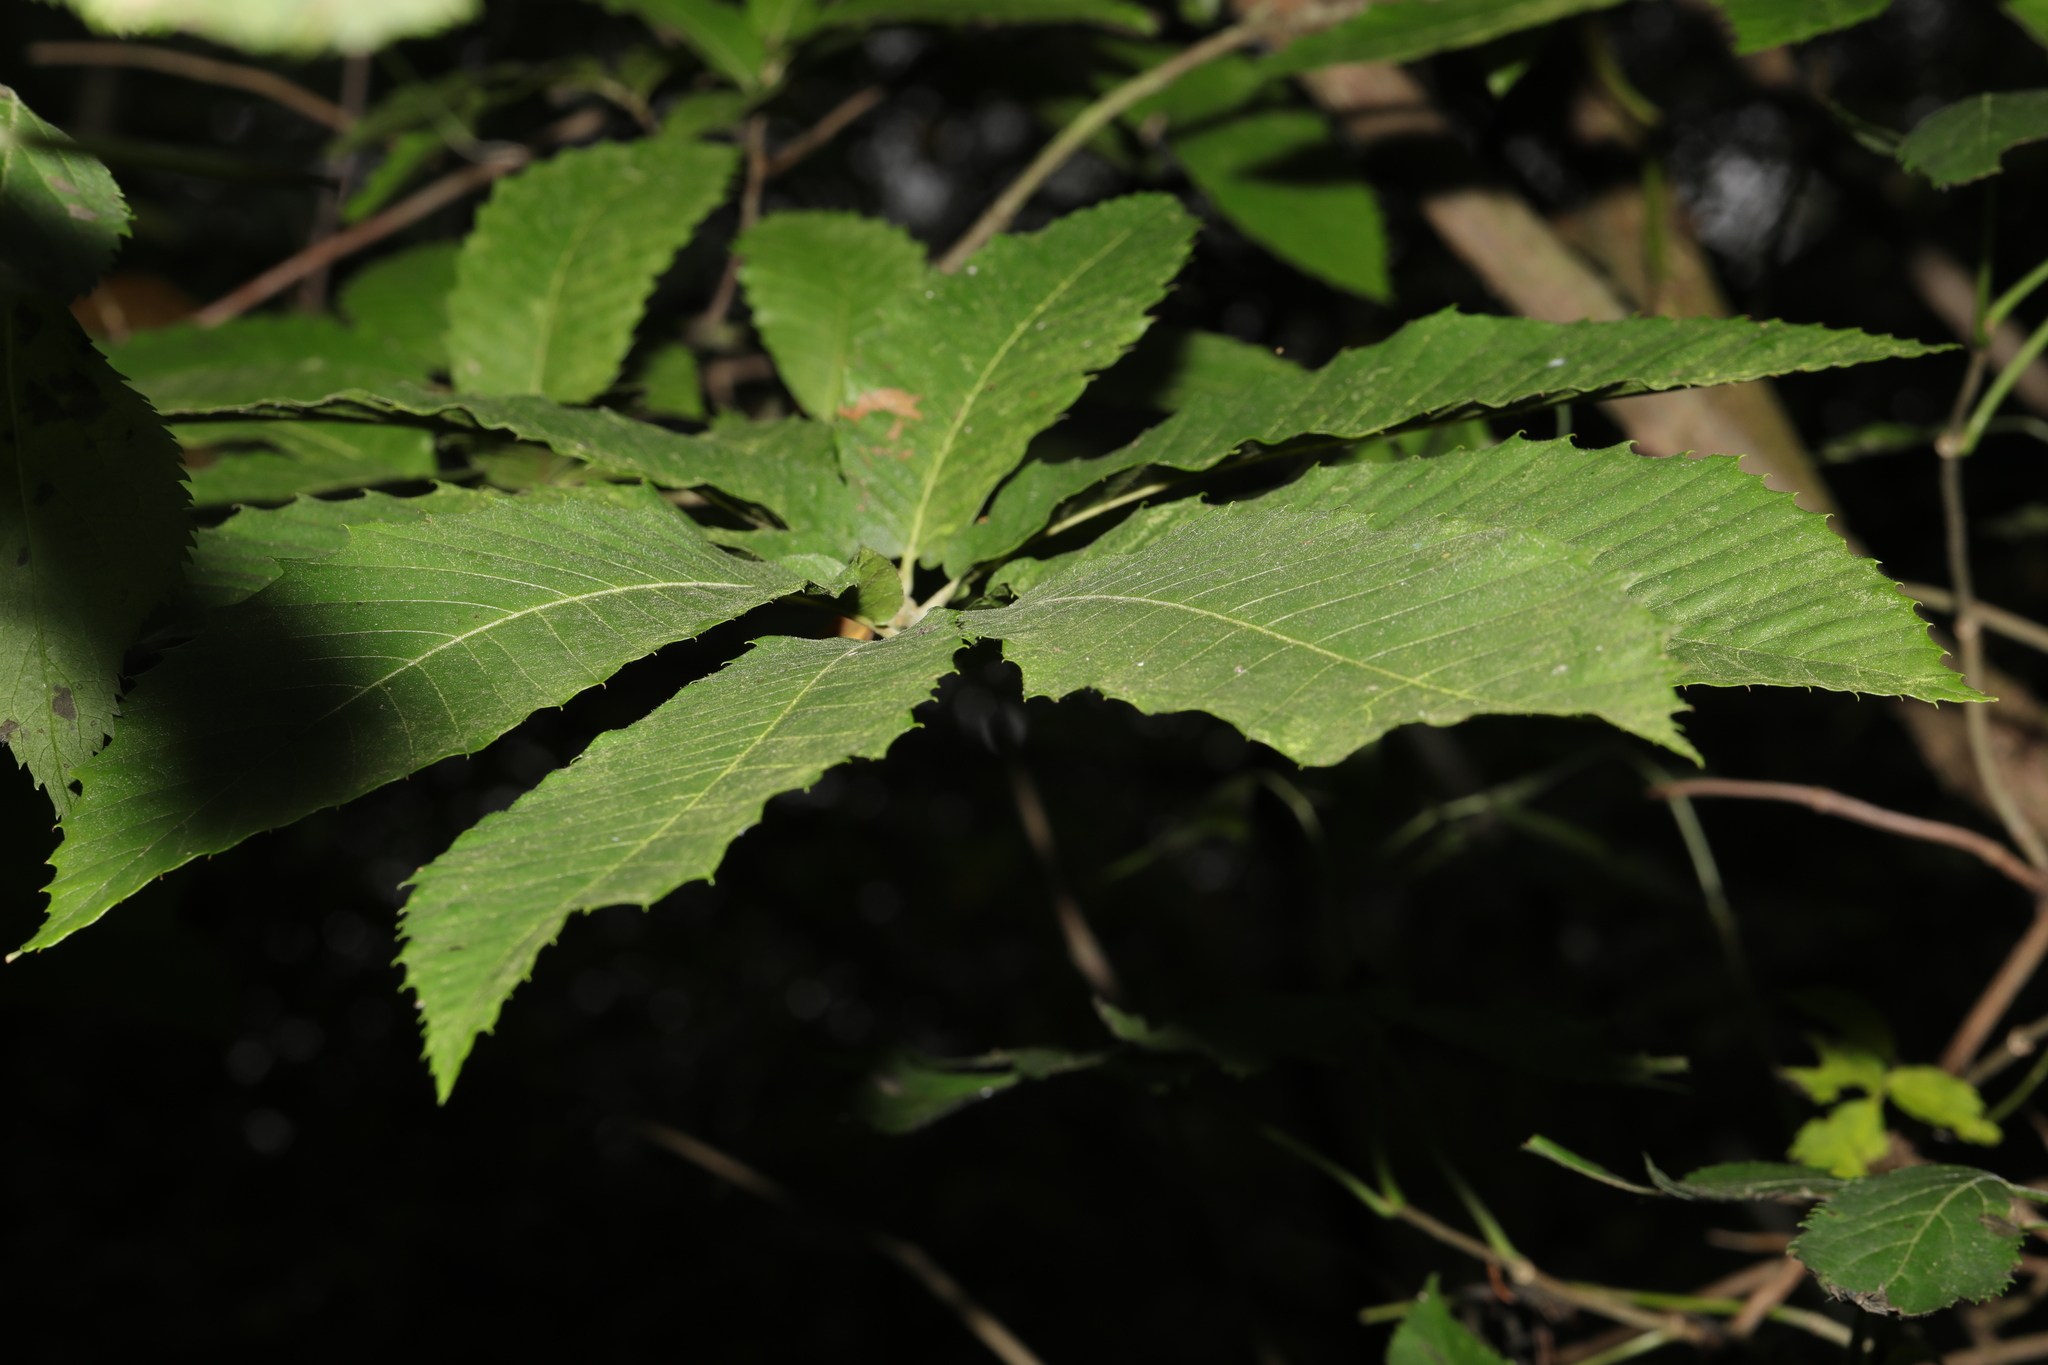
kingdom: Plantae
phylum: Tracheophyta
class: Magnoliopsida
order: Fagales
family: Fagaceae
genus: Castanea
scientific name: Castanea sativa
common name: Sweet chestnut
